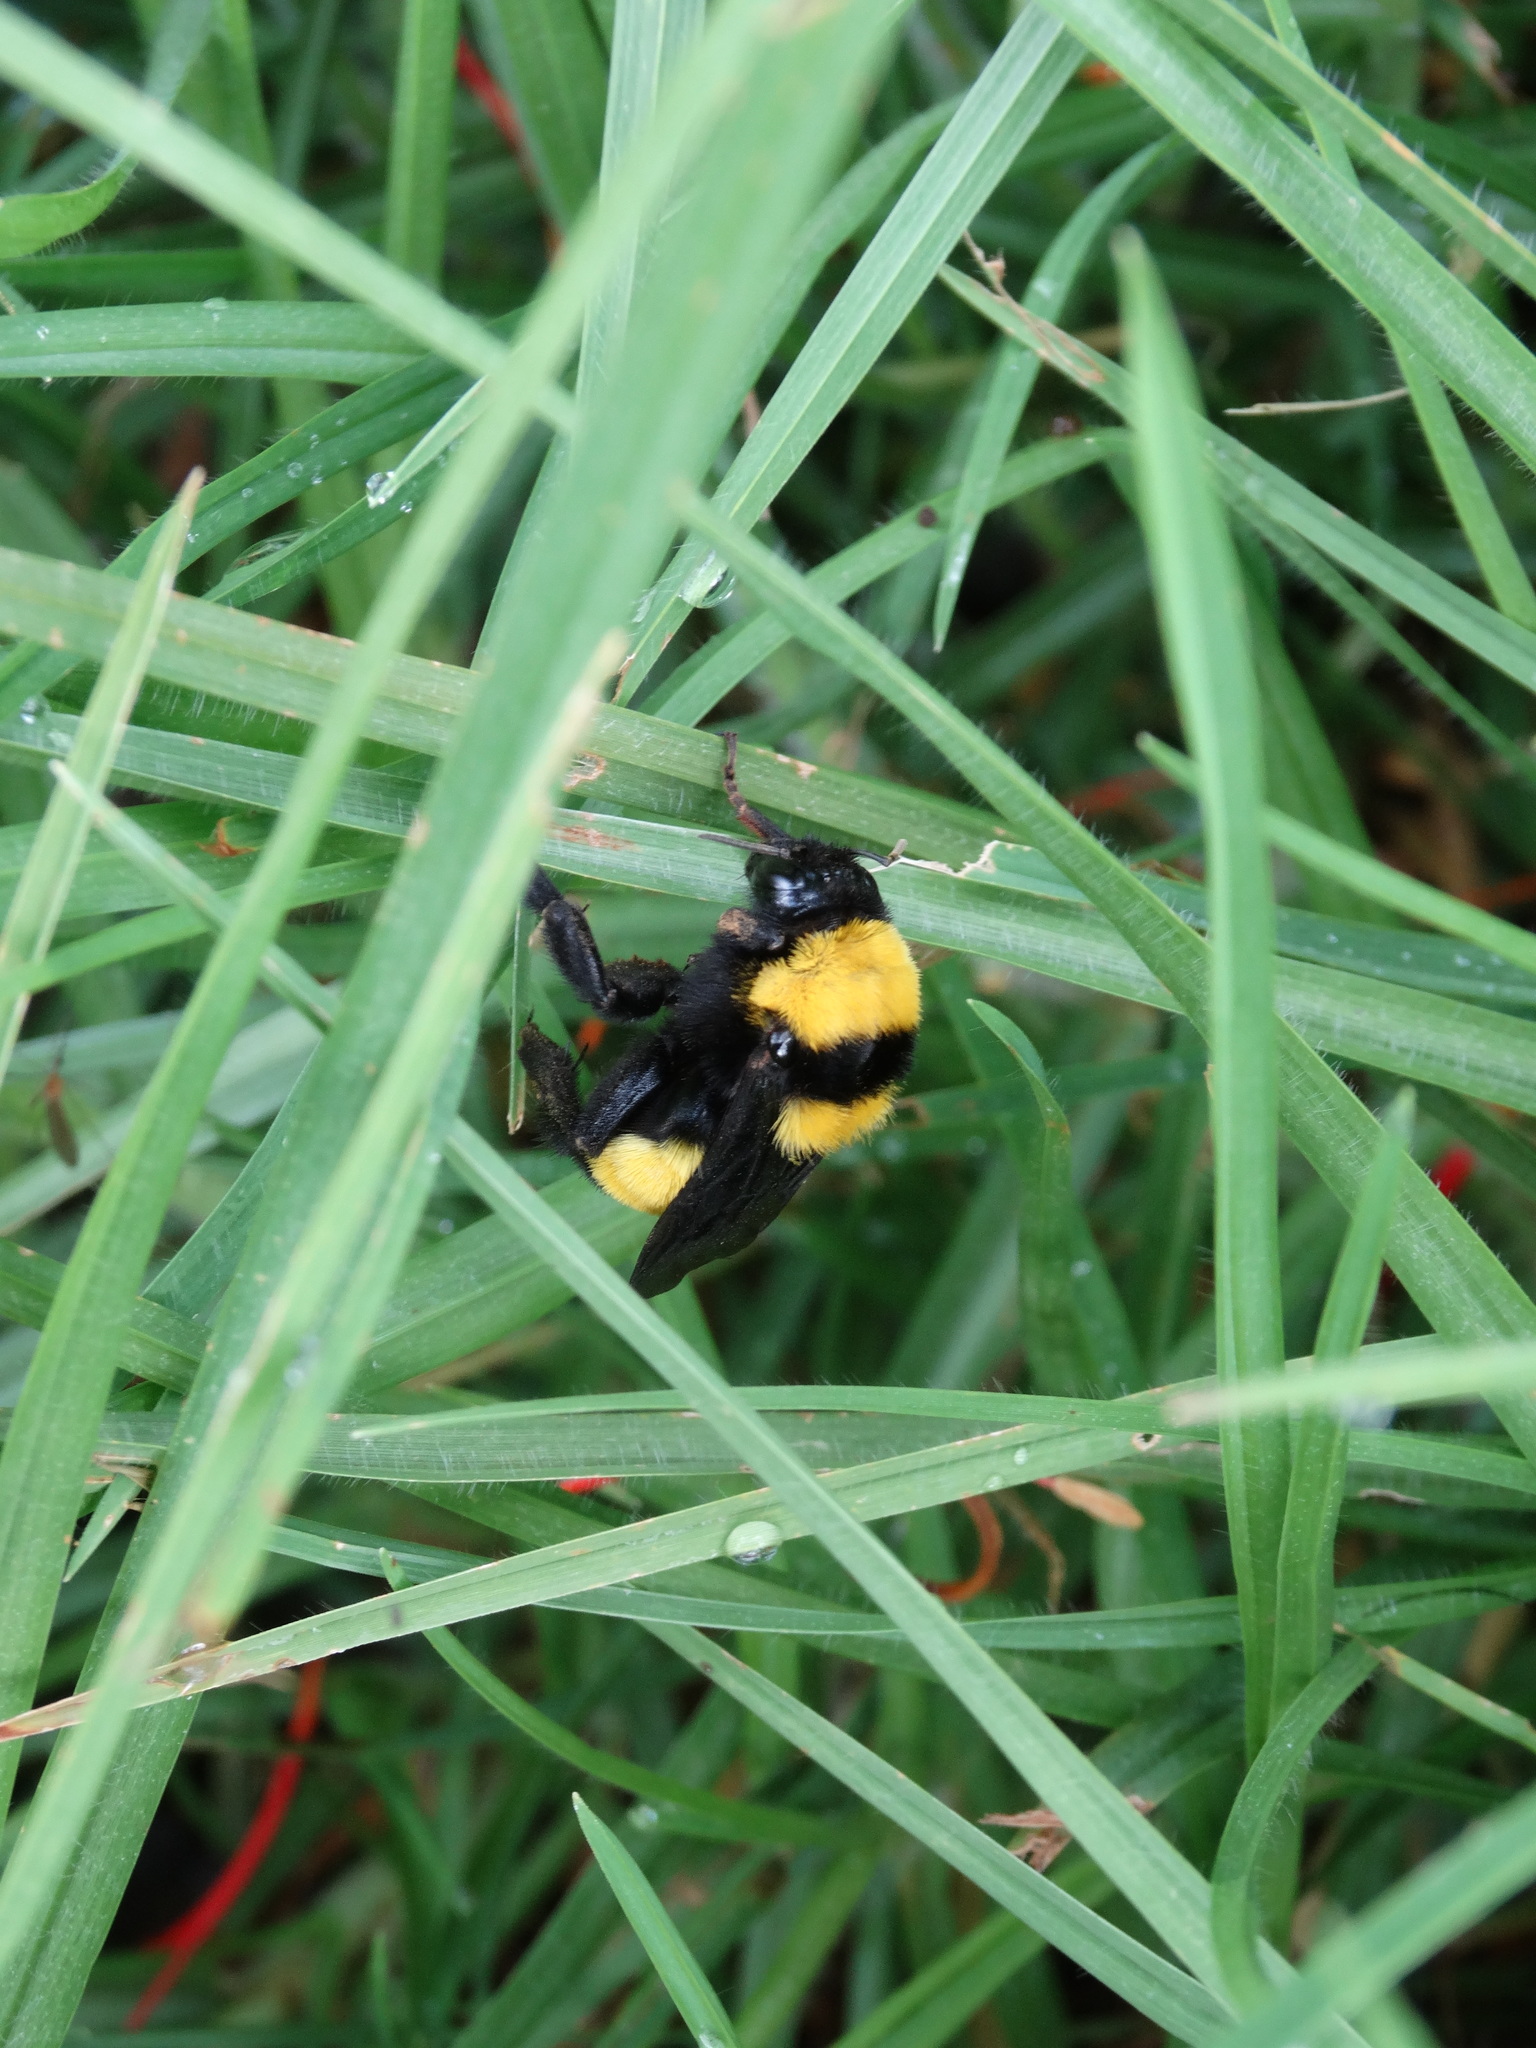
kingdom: Animalia
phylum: Arthropoda
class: Insecta
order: Hymenoptera
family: Apidae
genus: Bombus
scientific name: Bombus sonorus
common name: Sonoran bumble bee
